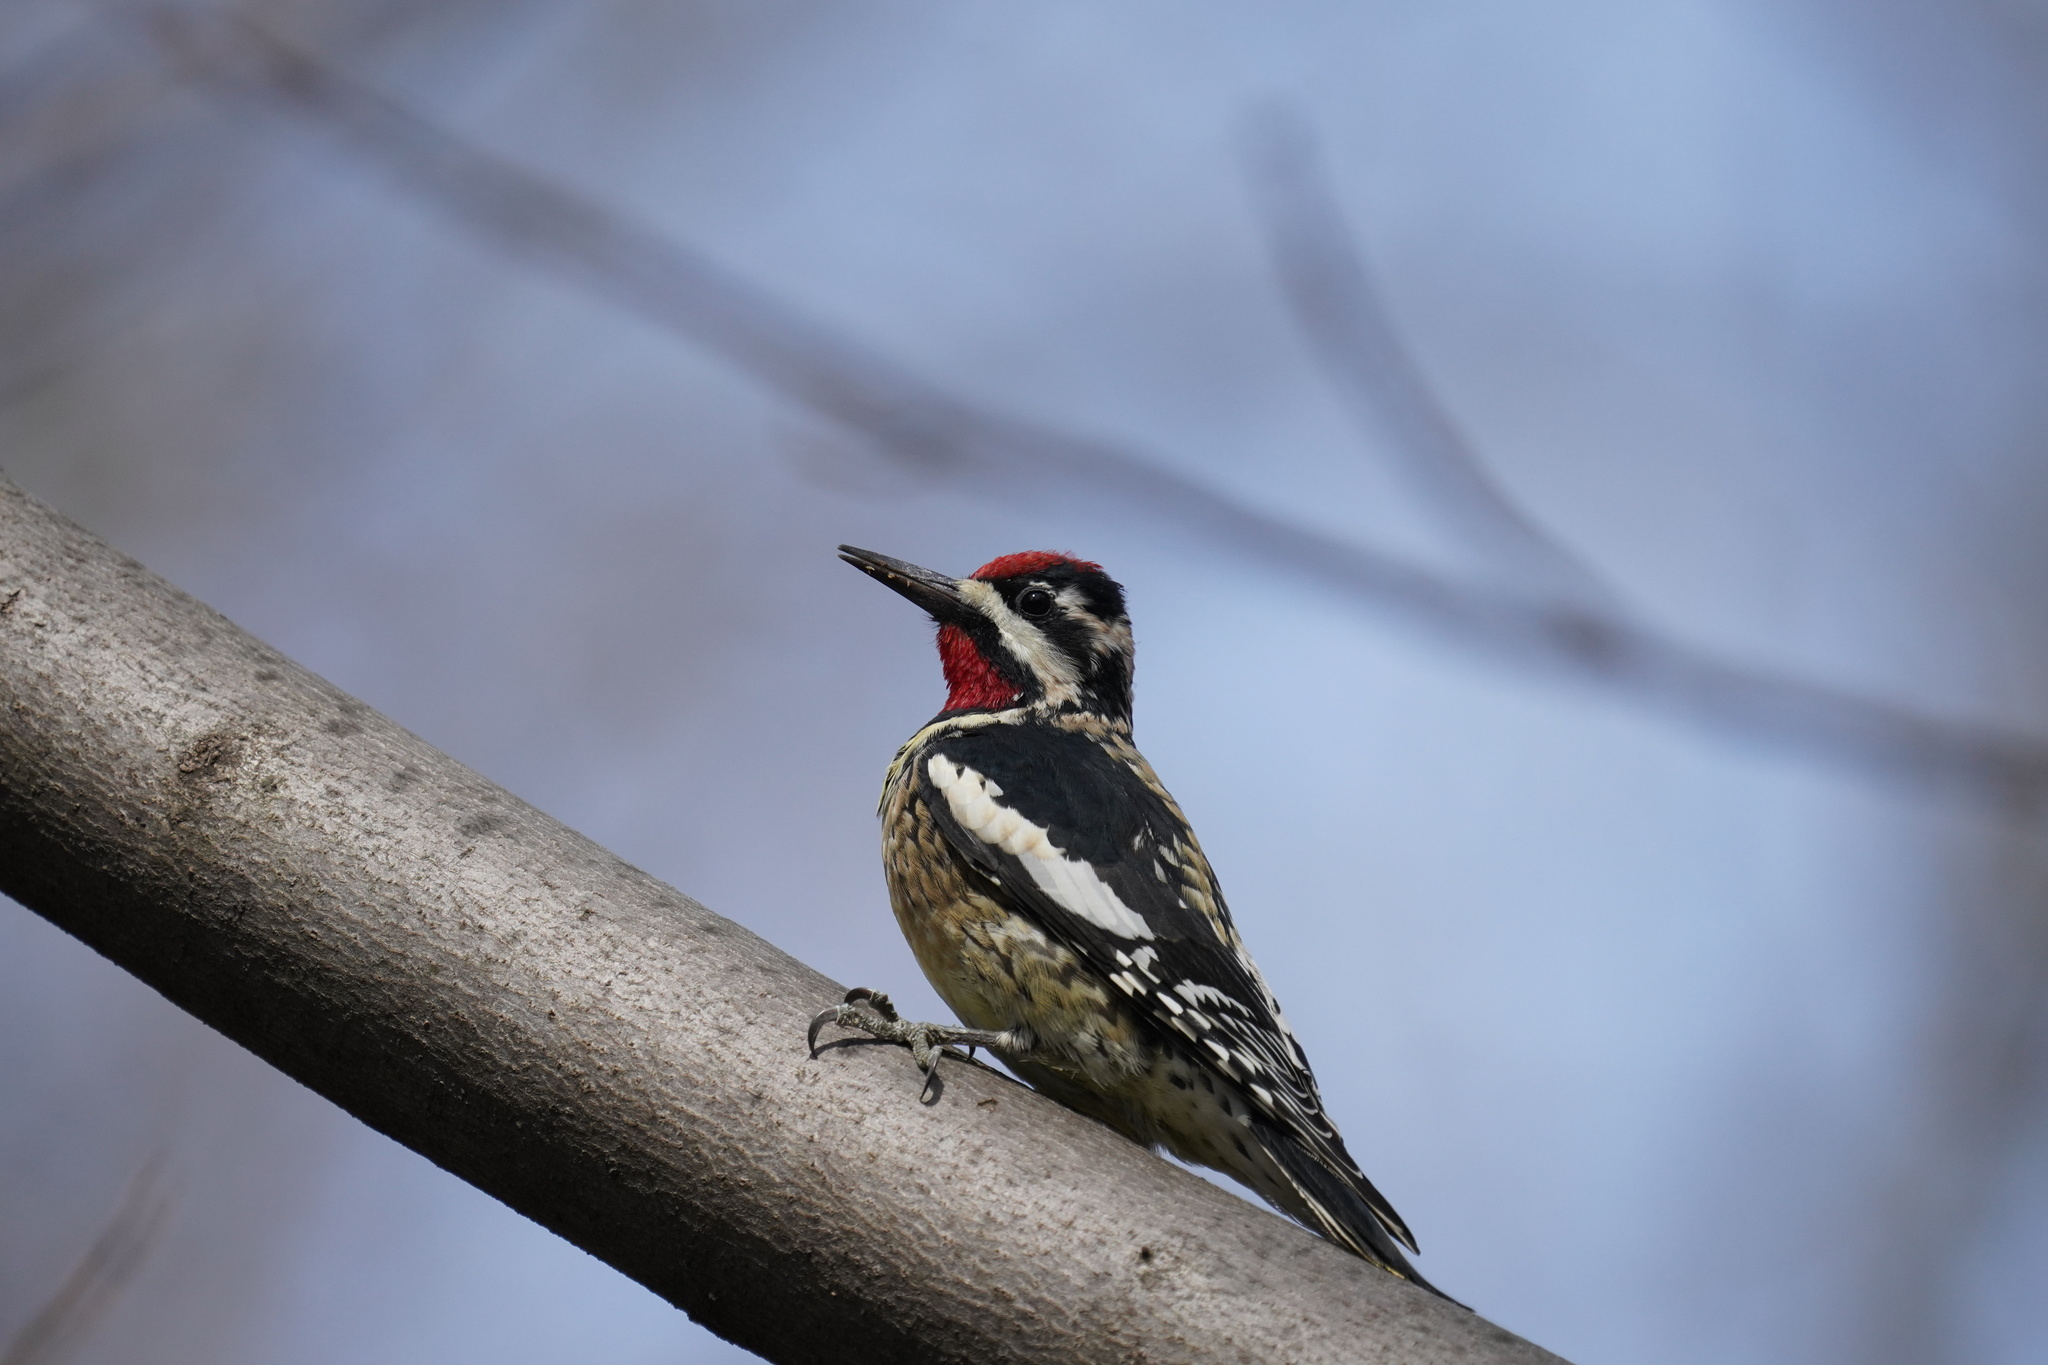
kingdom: Animalia
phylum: Chordata
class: Aves
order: Piciformes
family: Picidae
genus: Sphyrapicus
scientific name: Sphyrapicus varius
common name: Yellow-bellied sapsucker
